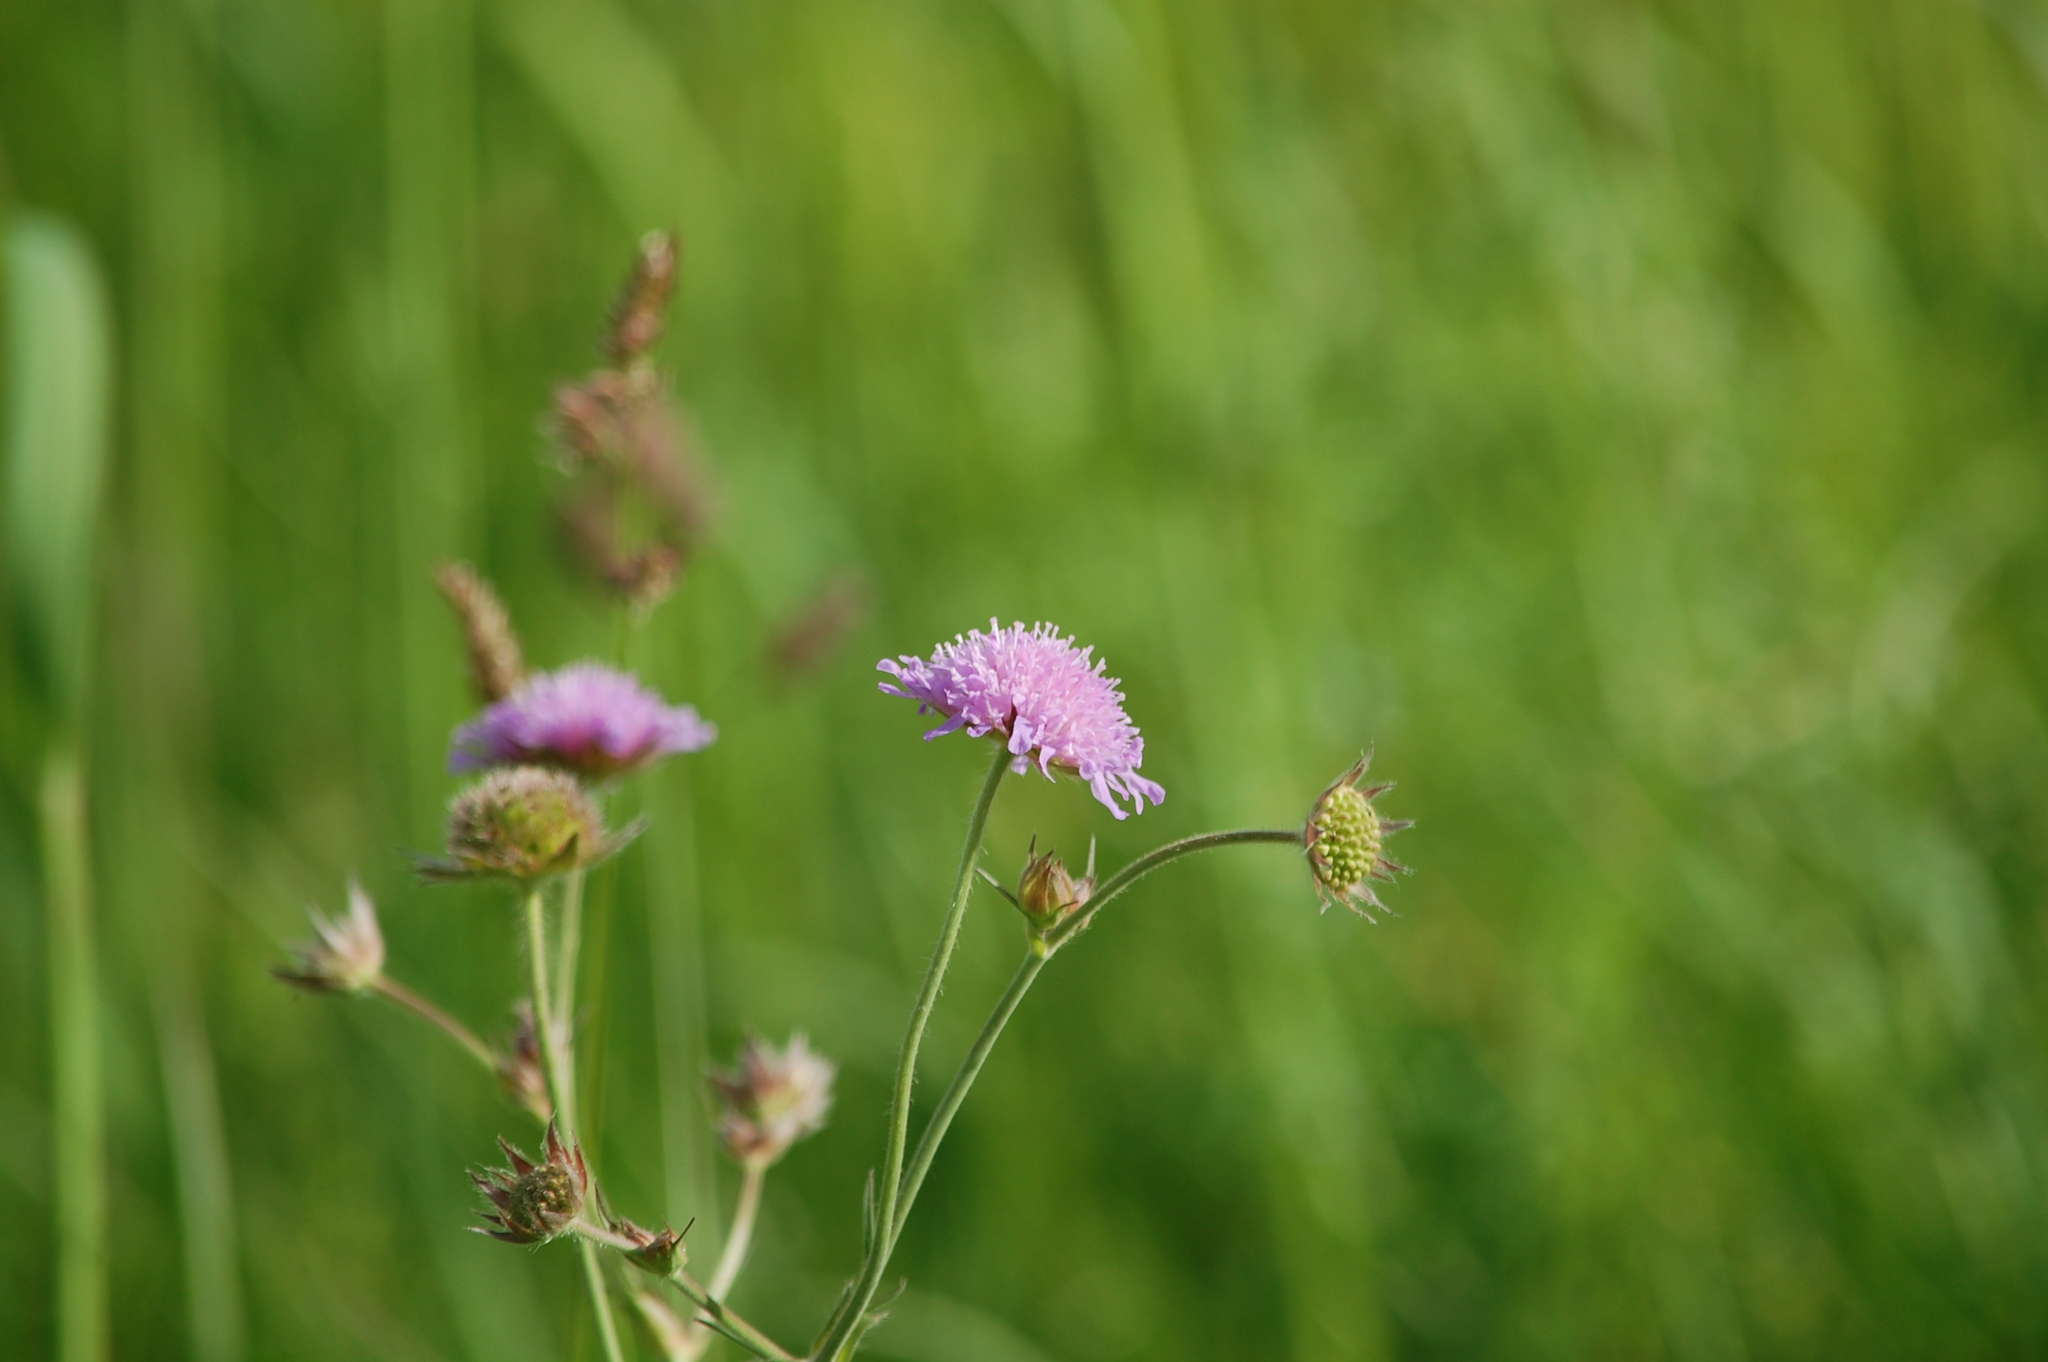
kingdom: Plantae
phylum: Tracheophyta
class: Magnoliopsida
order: Dipsacales
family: Caprifoliaceae
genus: Knautia
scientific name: Knautia arvensis
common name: Field scabiosa
